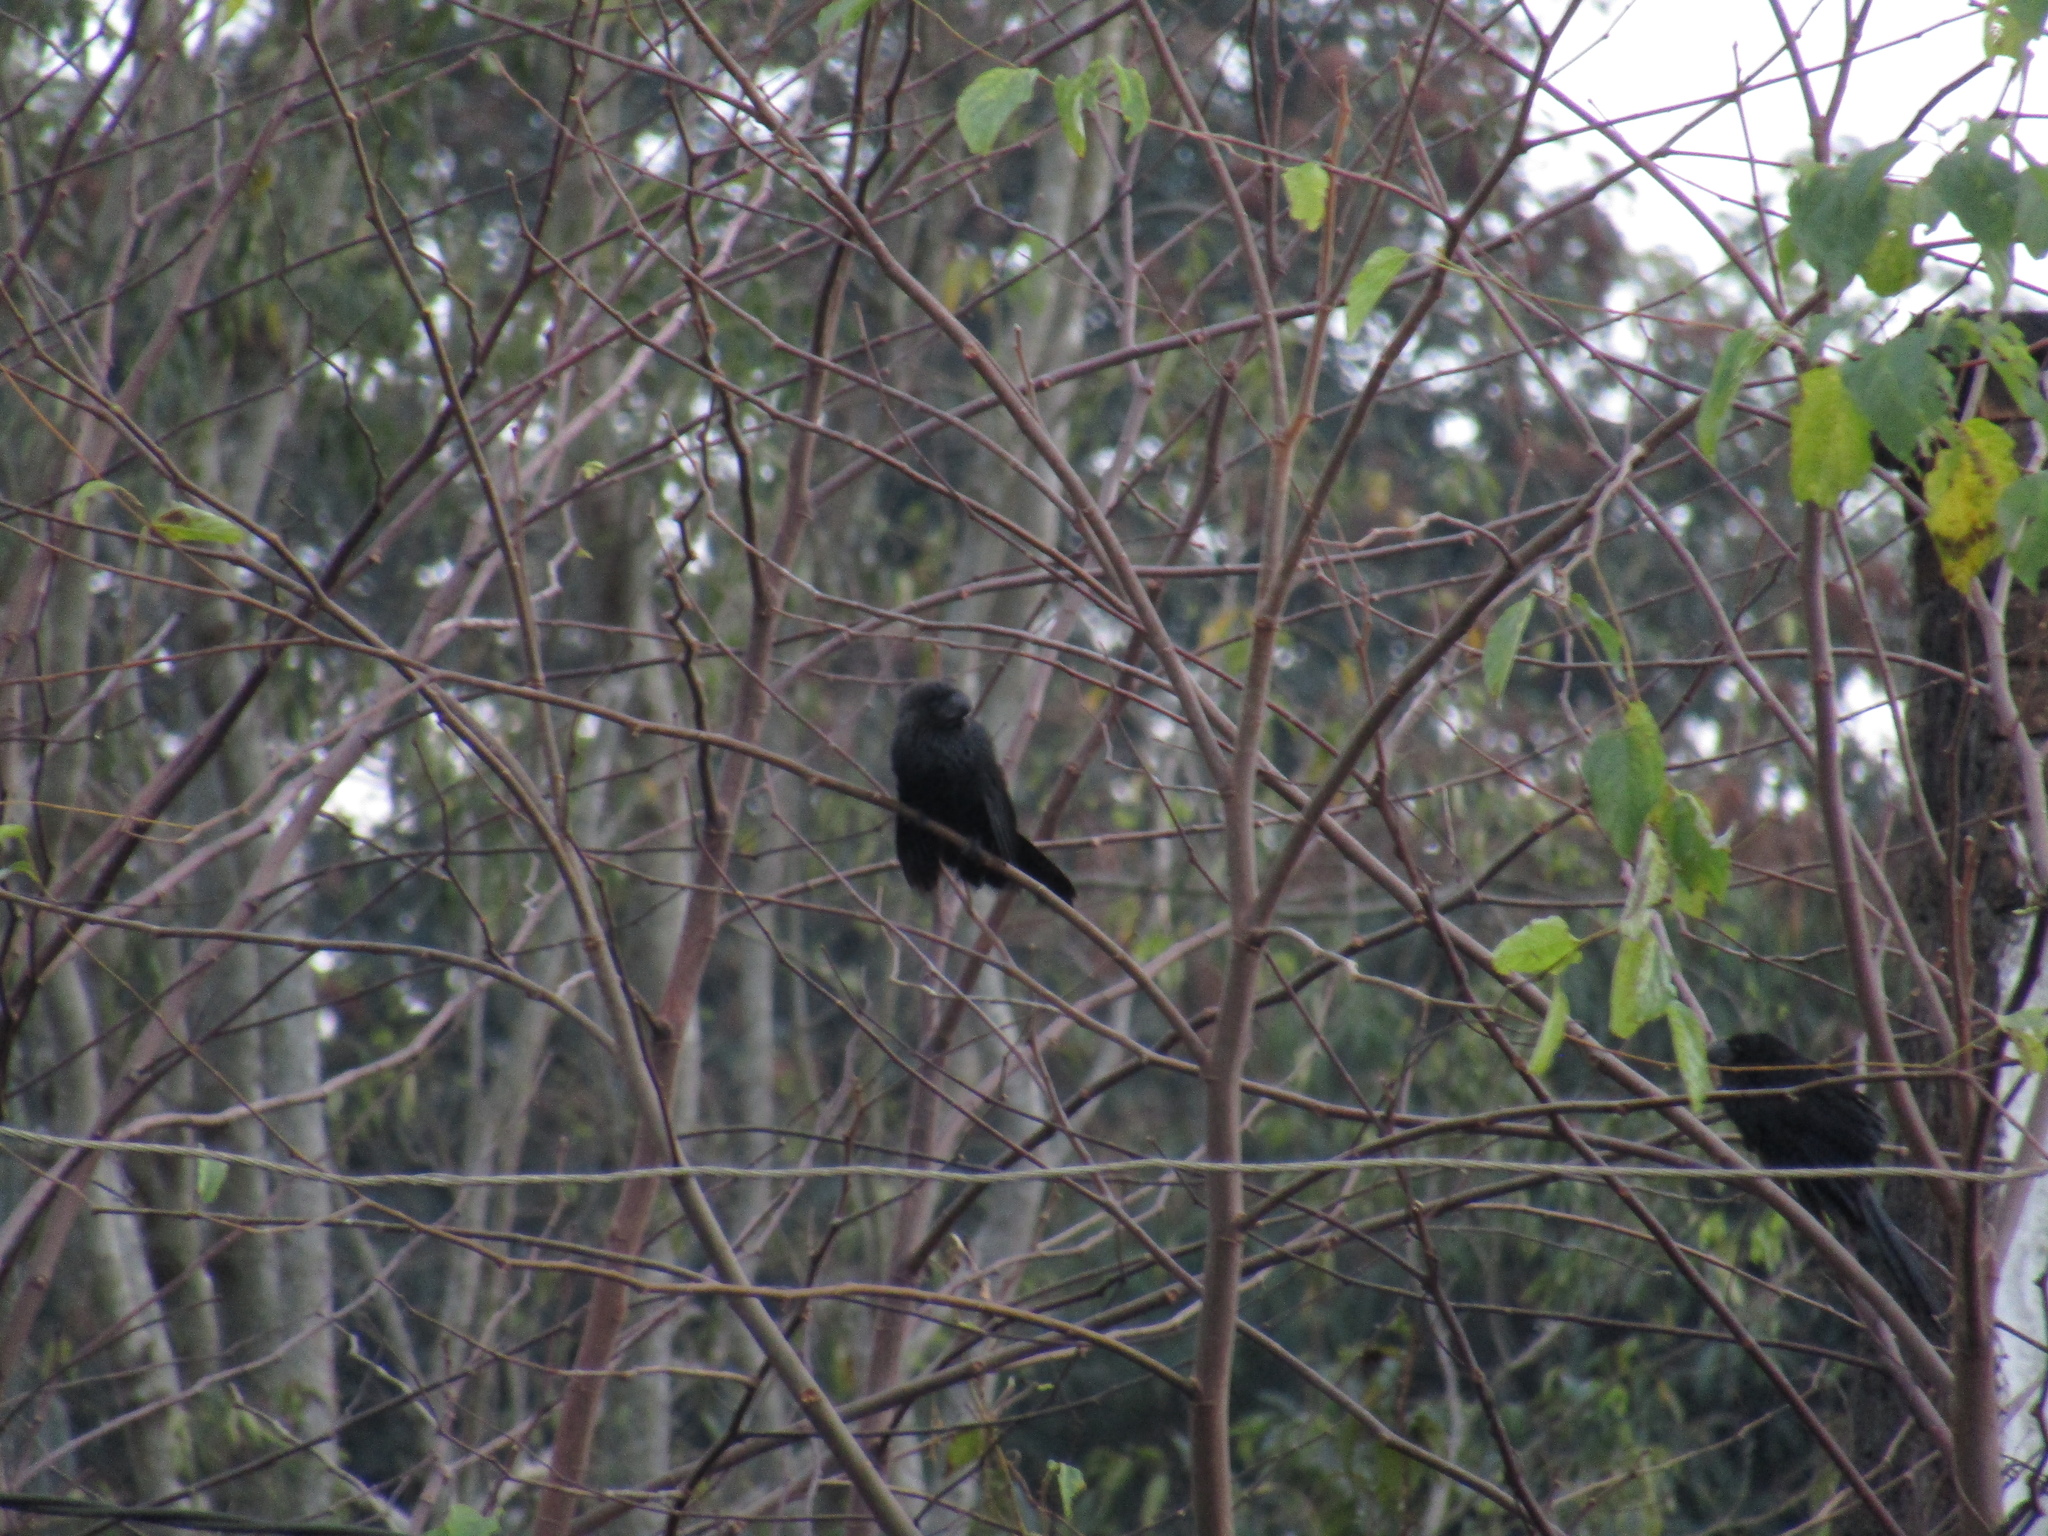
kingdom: Animalia
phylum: Chordata
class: Aves
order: Cuculiformes
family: Cuculidae
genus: Crotophaga
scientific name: Crotophaga ani
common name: Smooth-billed ani
